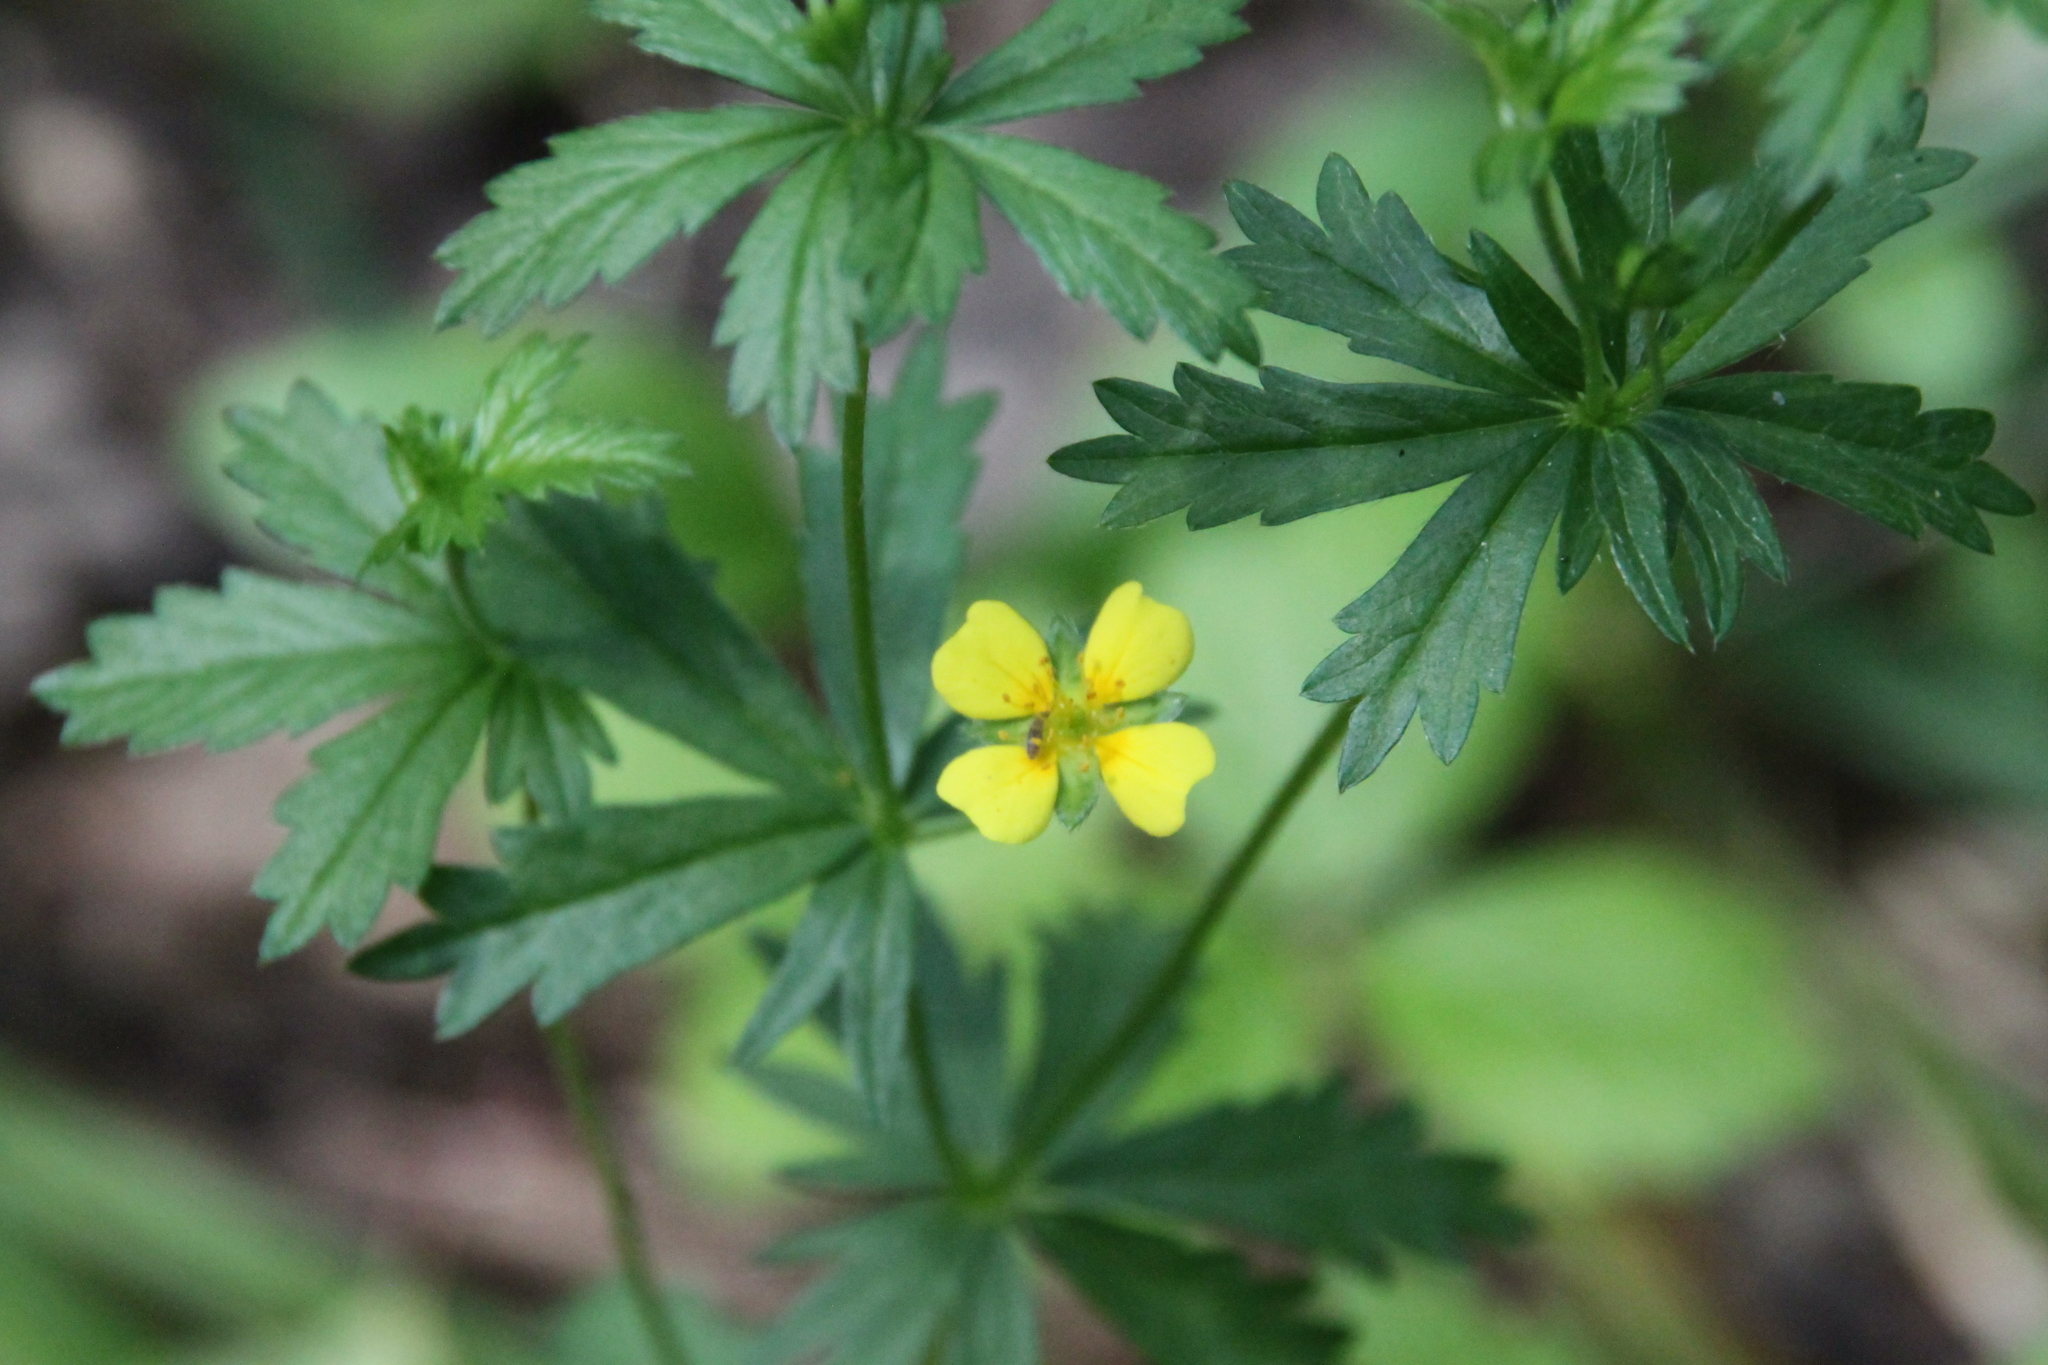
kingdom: Plantae
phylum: Tracheophyta
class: Magnoliopsida
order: Rosales
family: Rosaceae
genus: Potentilla
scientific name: Potentilla erecta
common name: Tormentil
